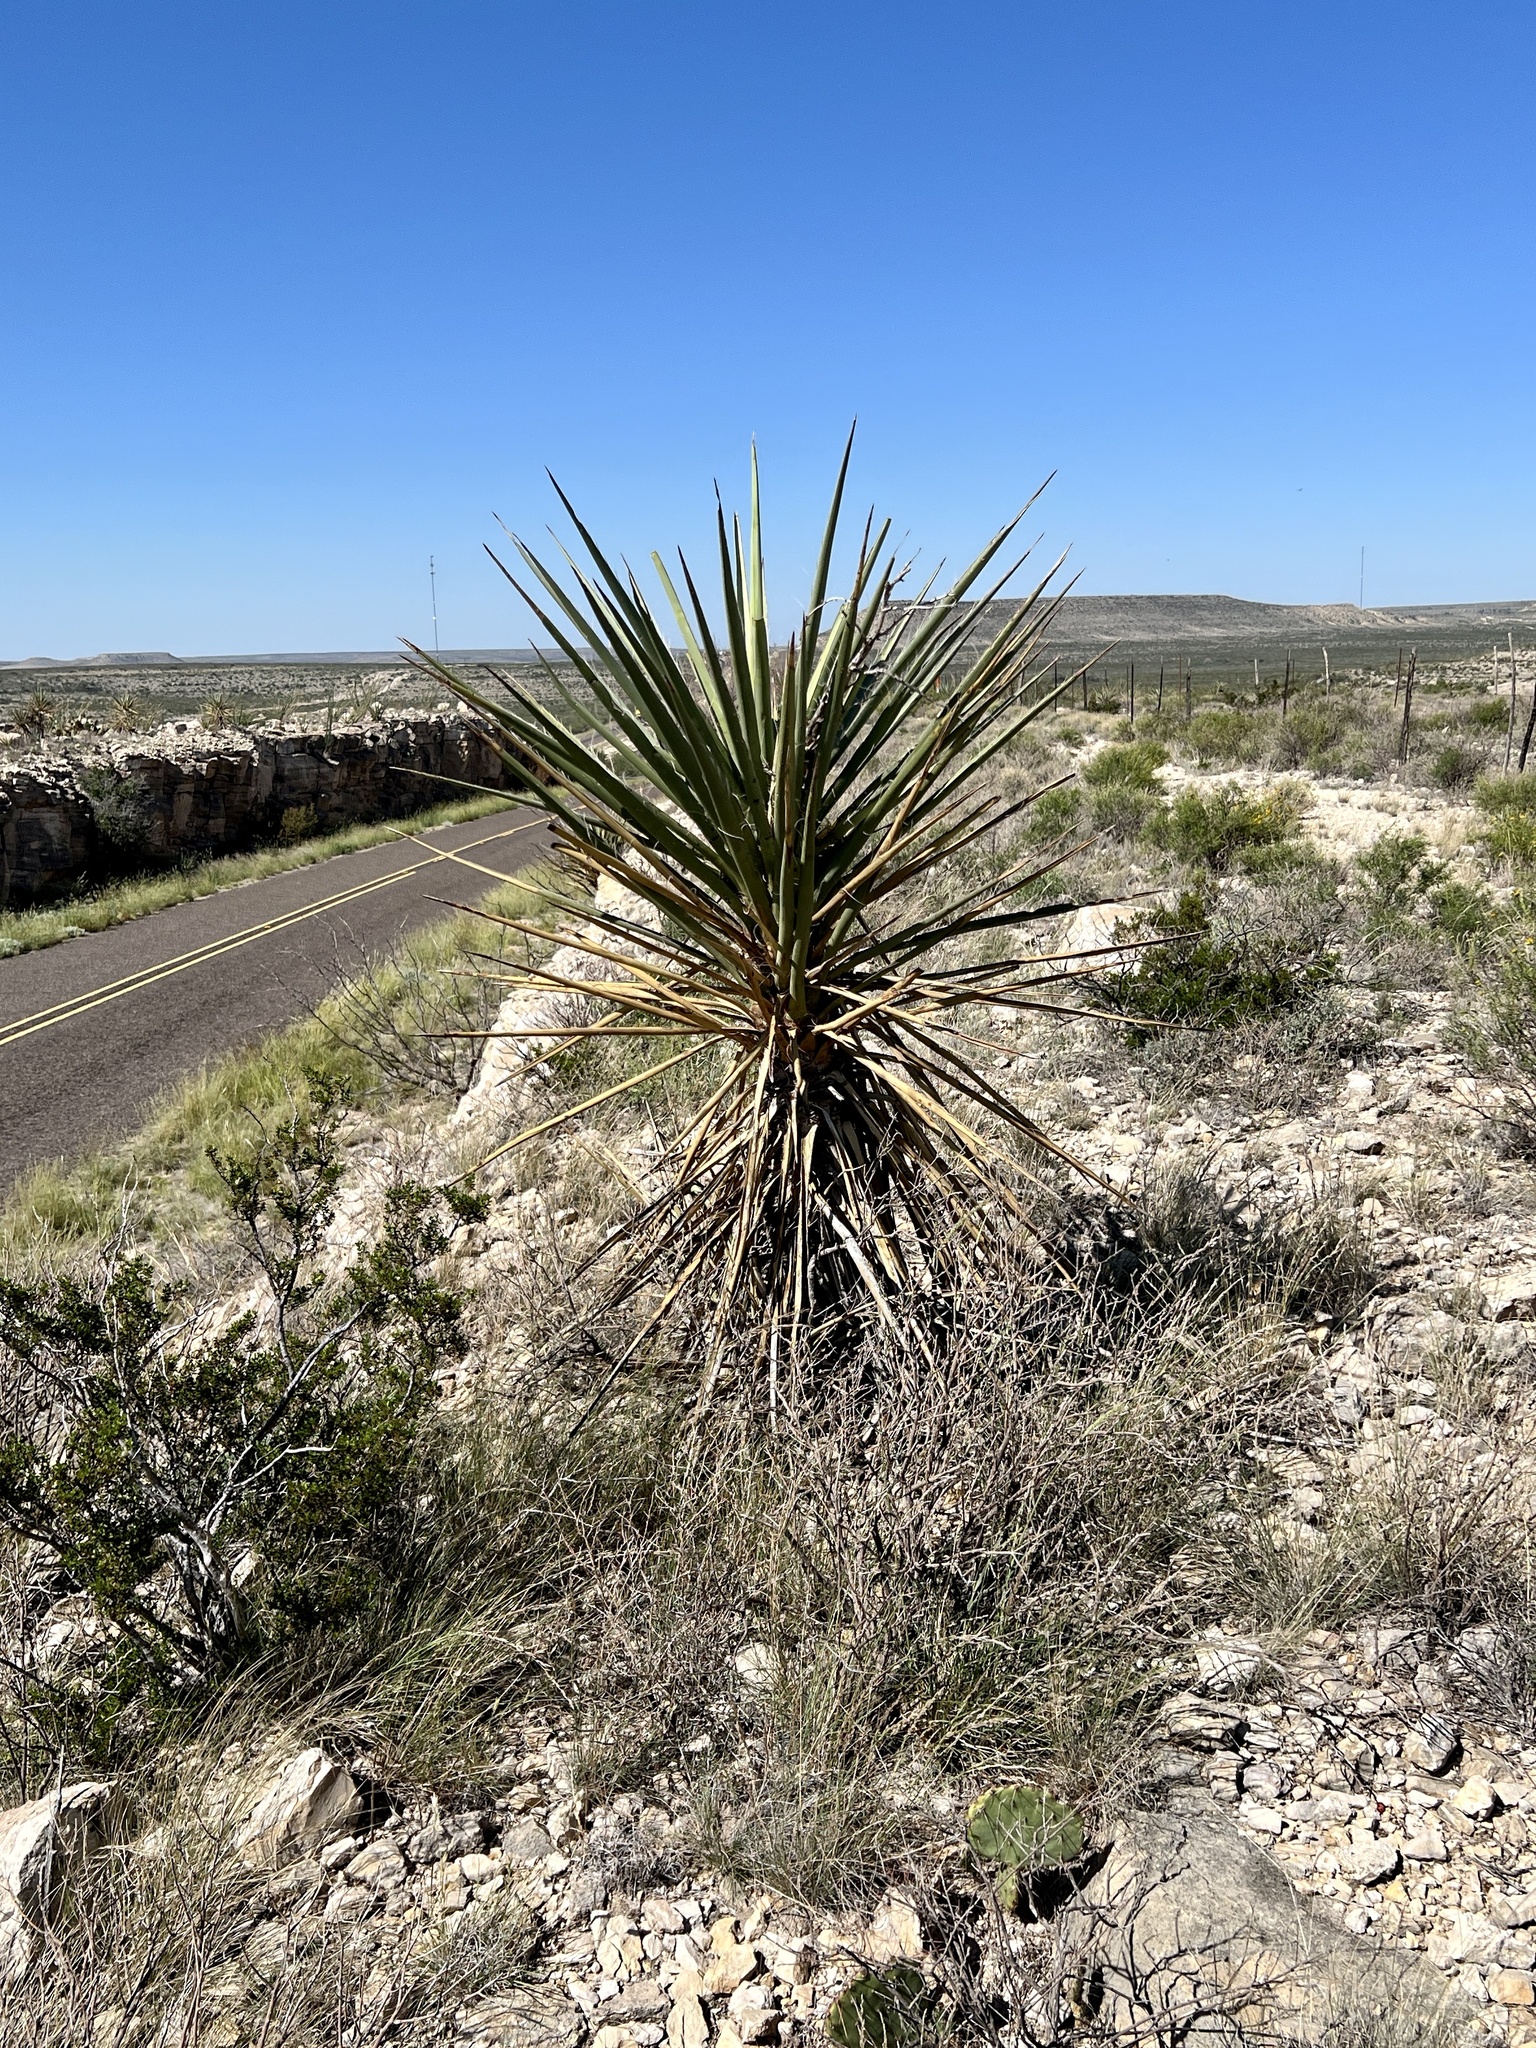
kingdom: Plantae
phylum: Tracheophyta
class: Liliopsida
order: Asparagales
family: Asparagaceae
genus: Yucca
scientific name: Yucca treculiana
